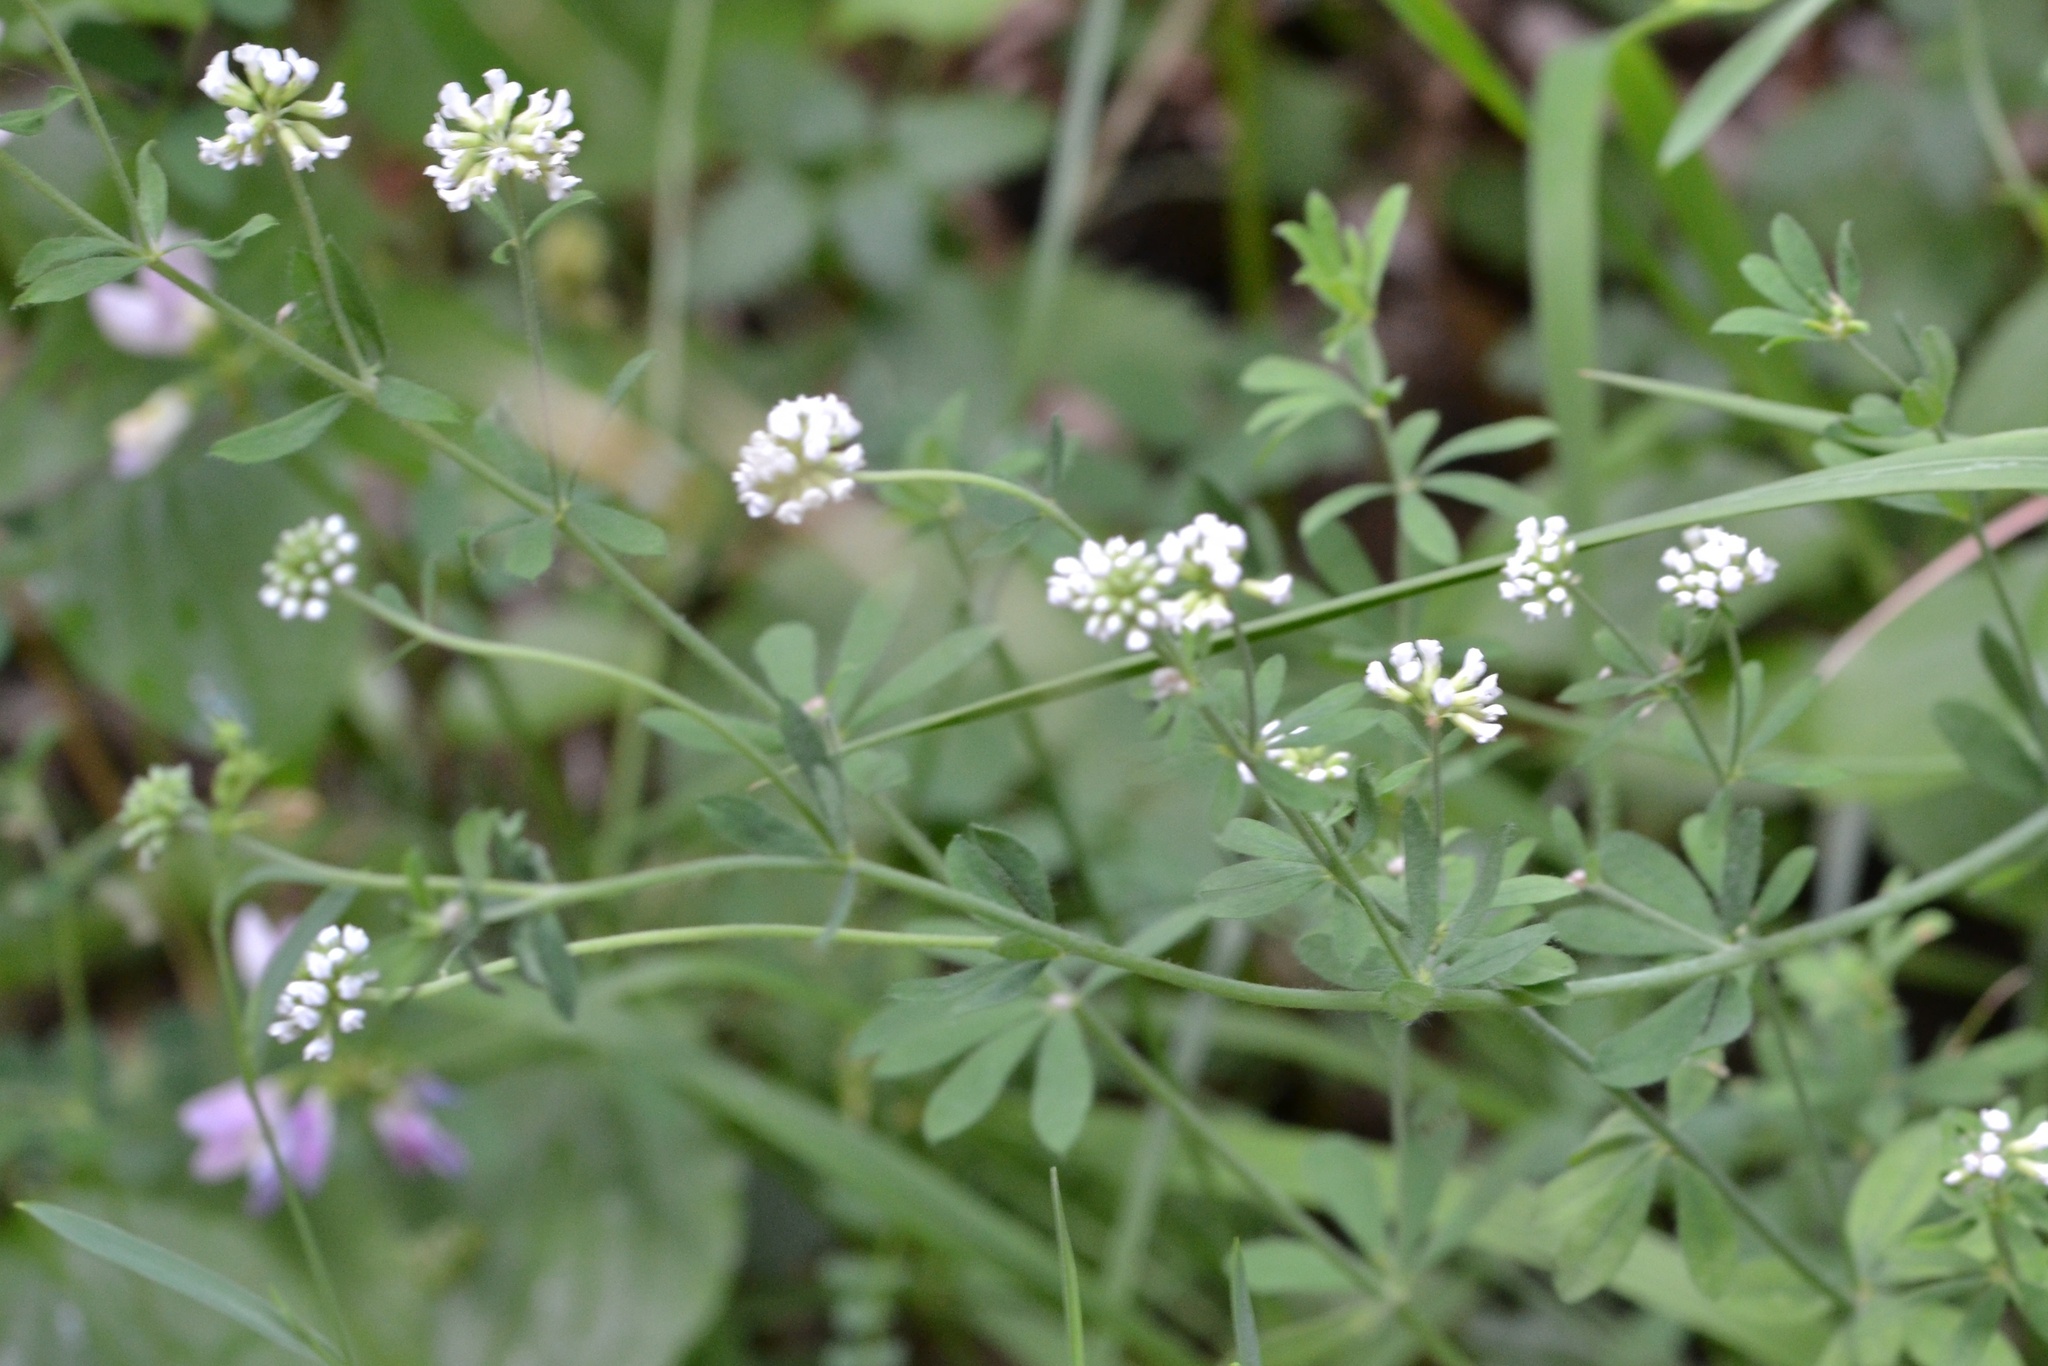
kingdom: Plantae
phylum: Tracheophyta
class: Magnoliopsida
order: Fabales
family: Fabaceae
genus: Lotus
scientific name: Lotus herbaceus
